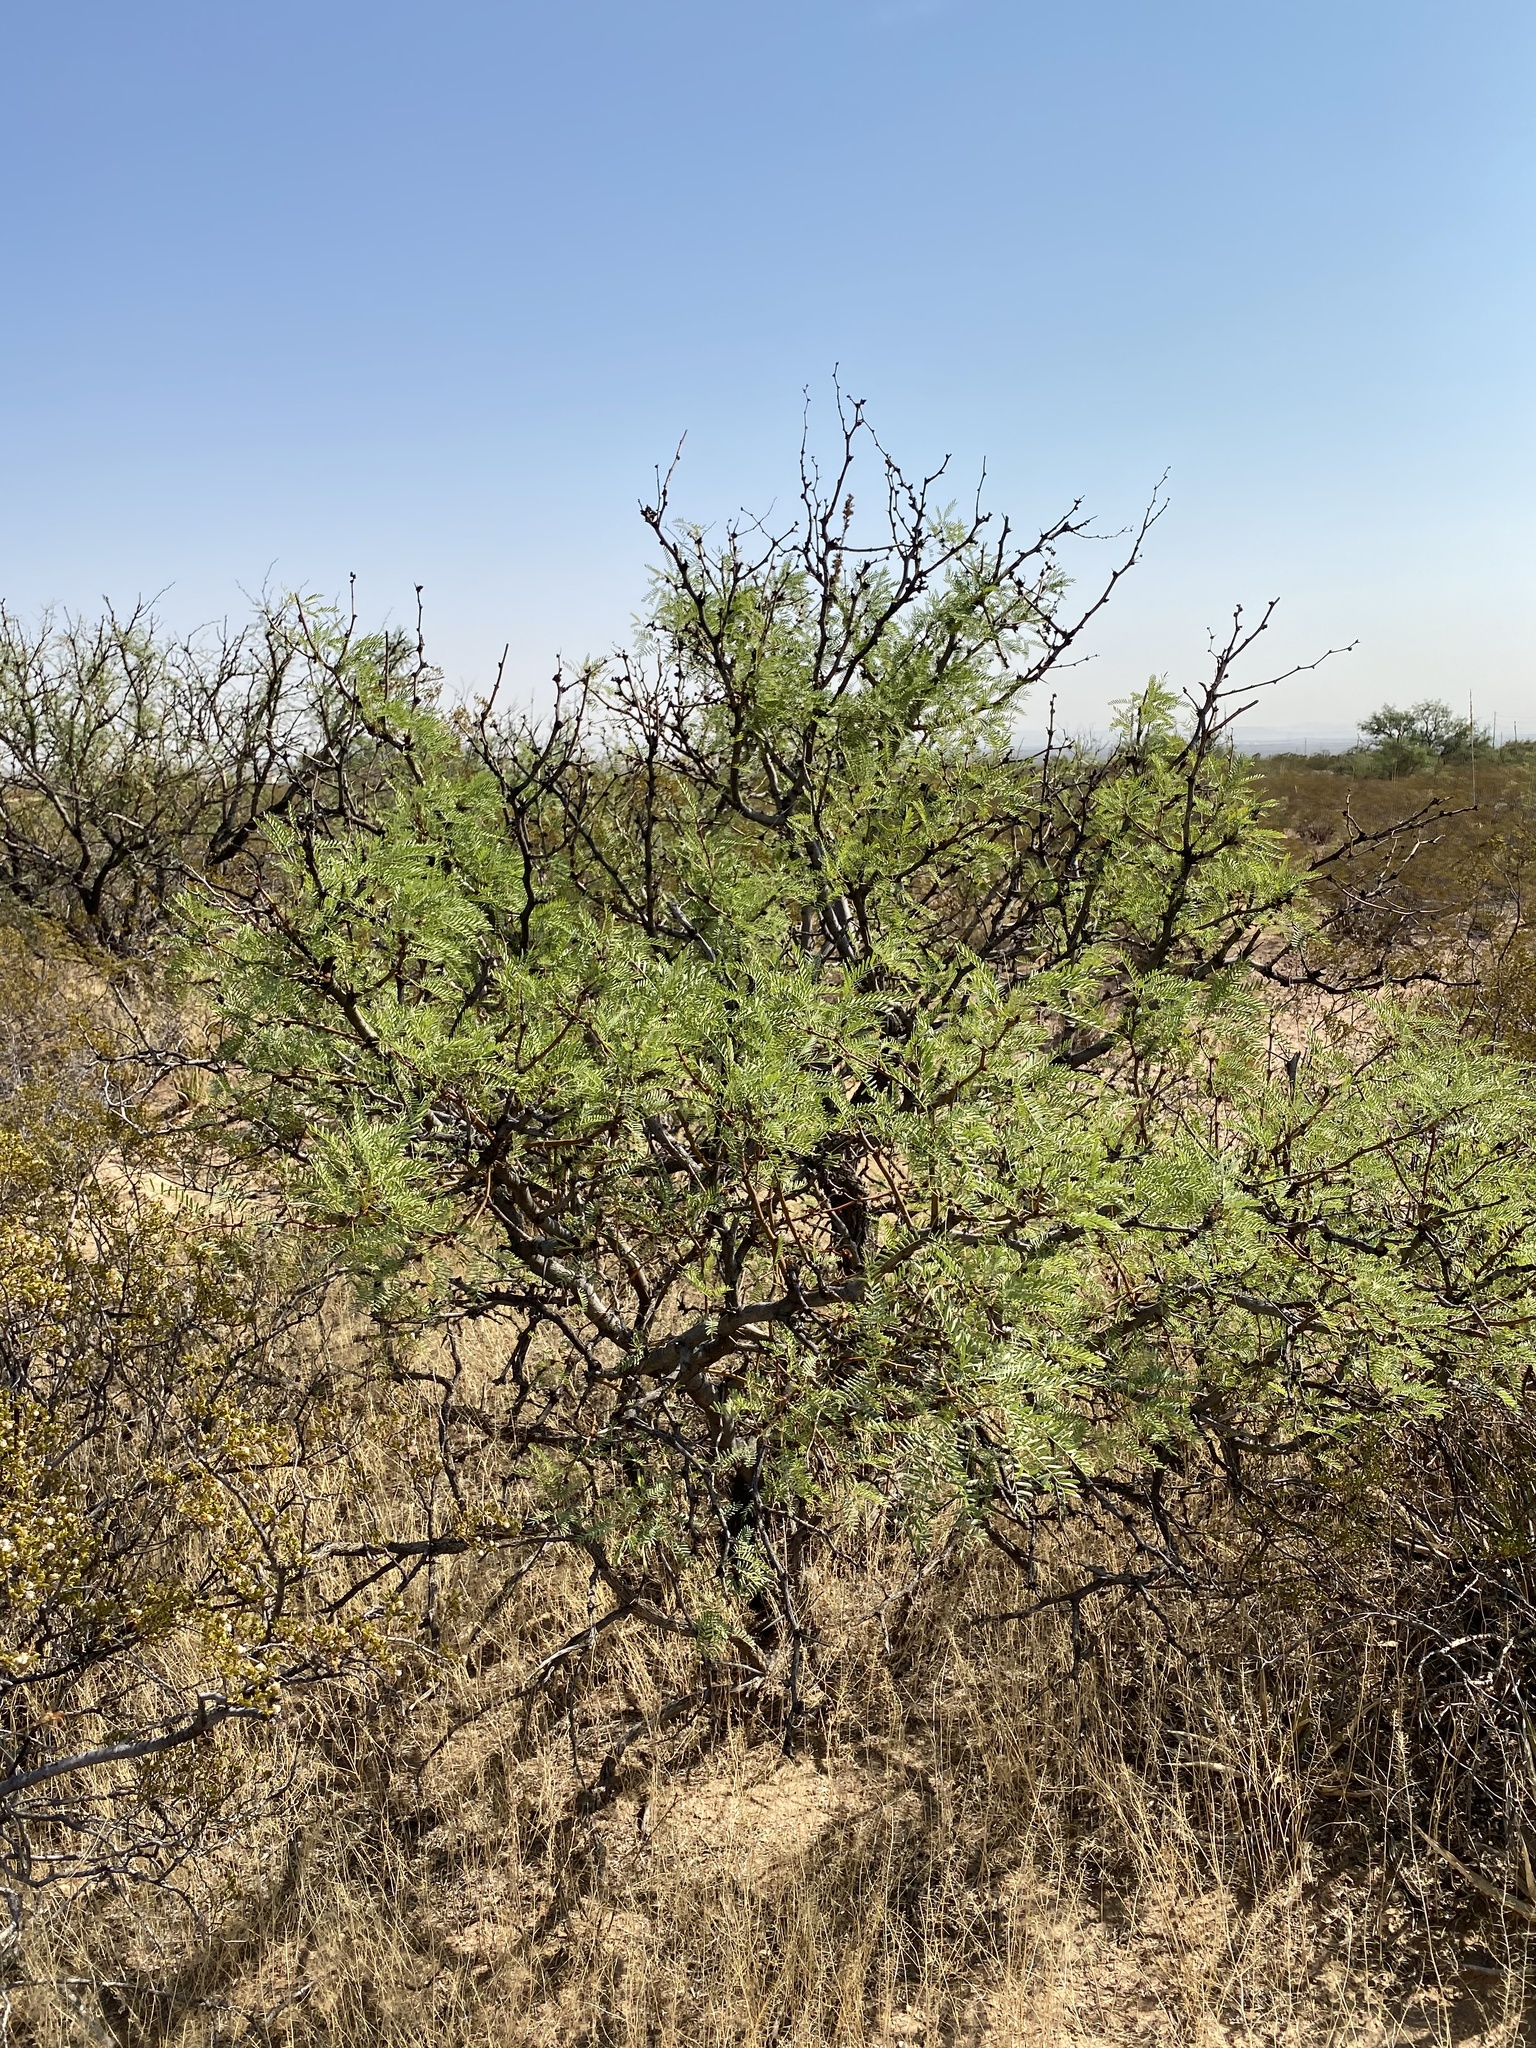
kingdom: Plantae
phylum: Tracheophyta
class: Magnoliopsida
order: Fabales
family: Fabaceae
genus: Prosopis
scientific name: Prosopis glandulosa
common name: Honey mesquite
